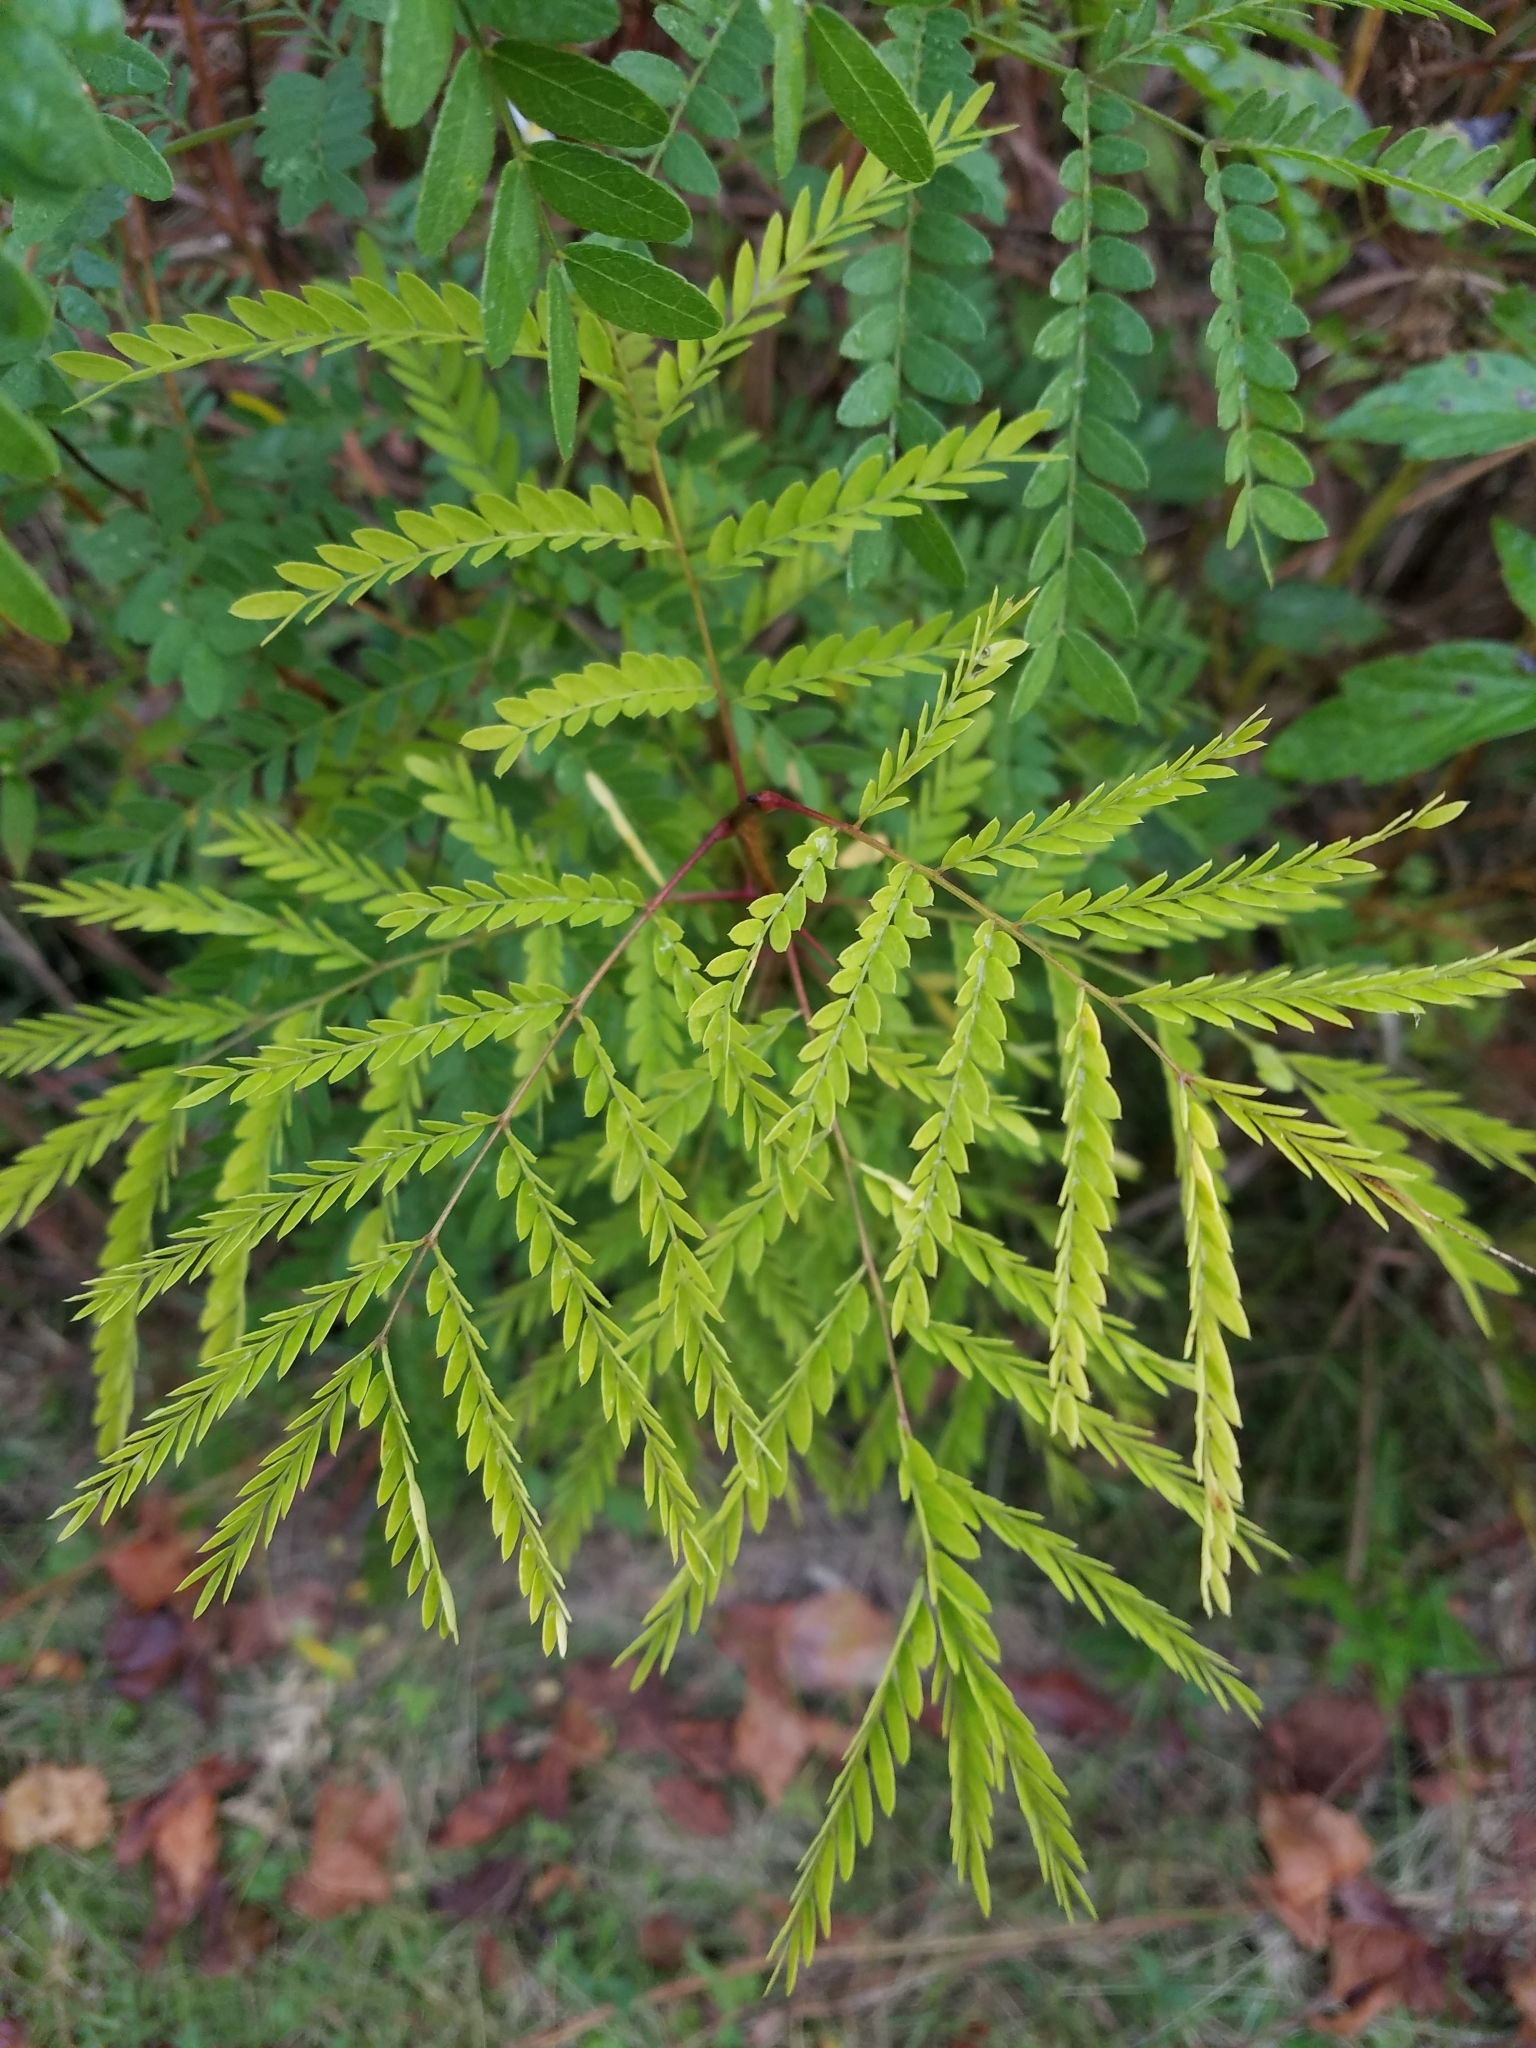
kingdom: Plantae
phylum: Tracheophyta
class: Magnoliopsida
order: Fabales
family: Fabaceae
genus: Gleditsia
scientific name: Gleditsia triacanthos
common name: Common honeylocust
